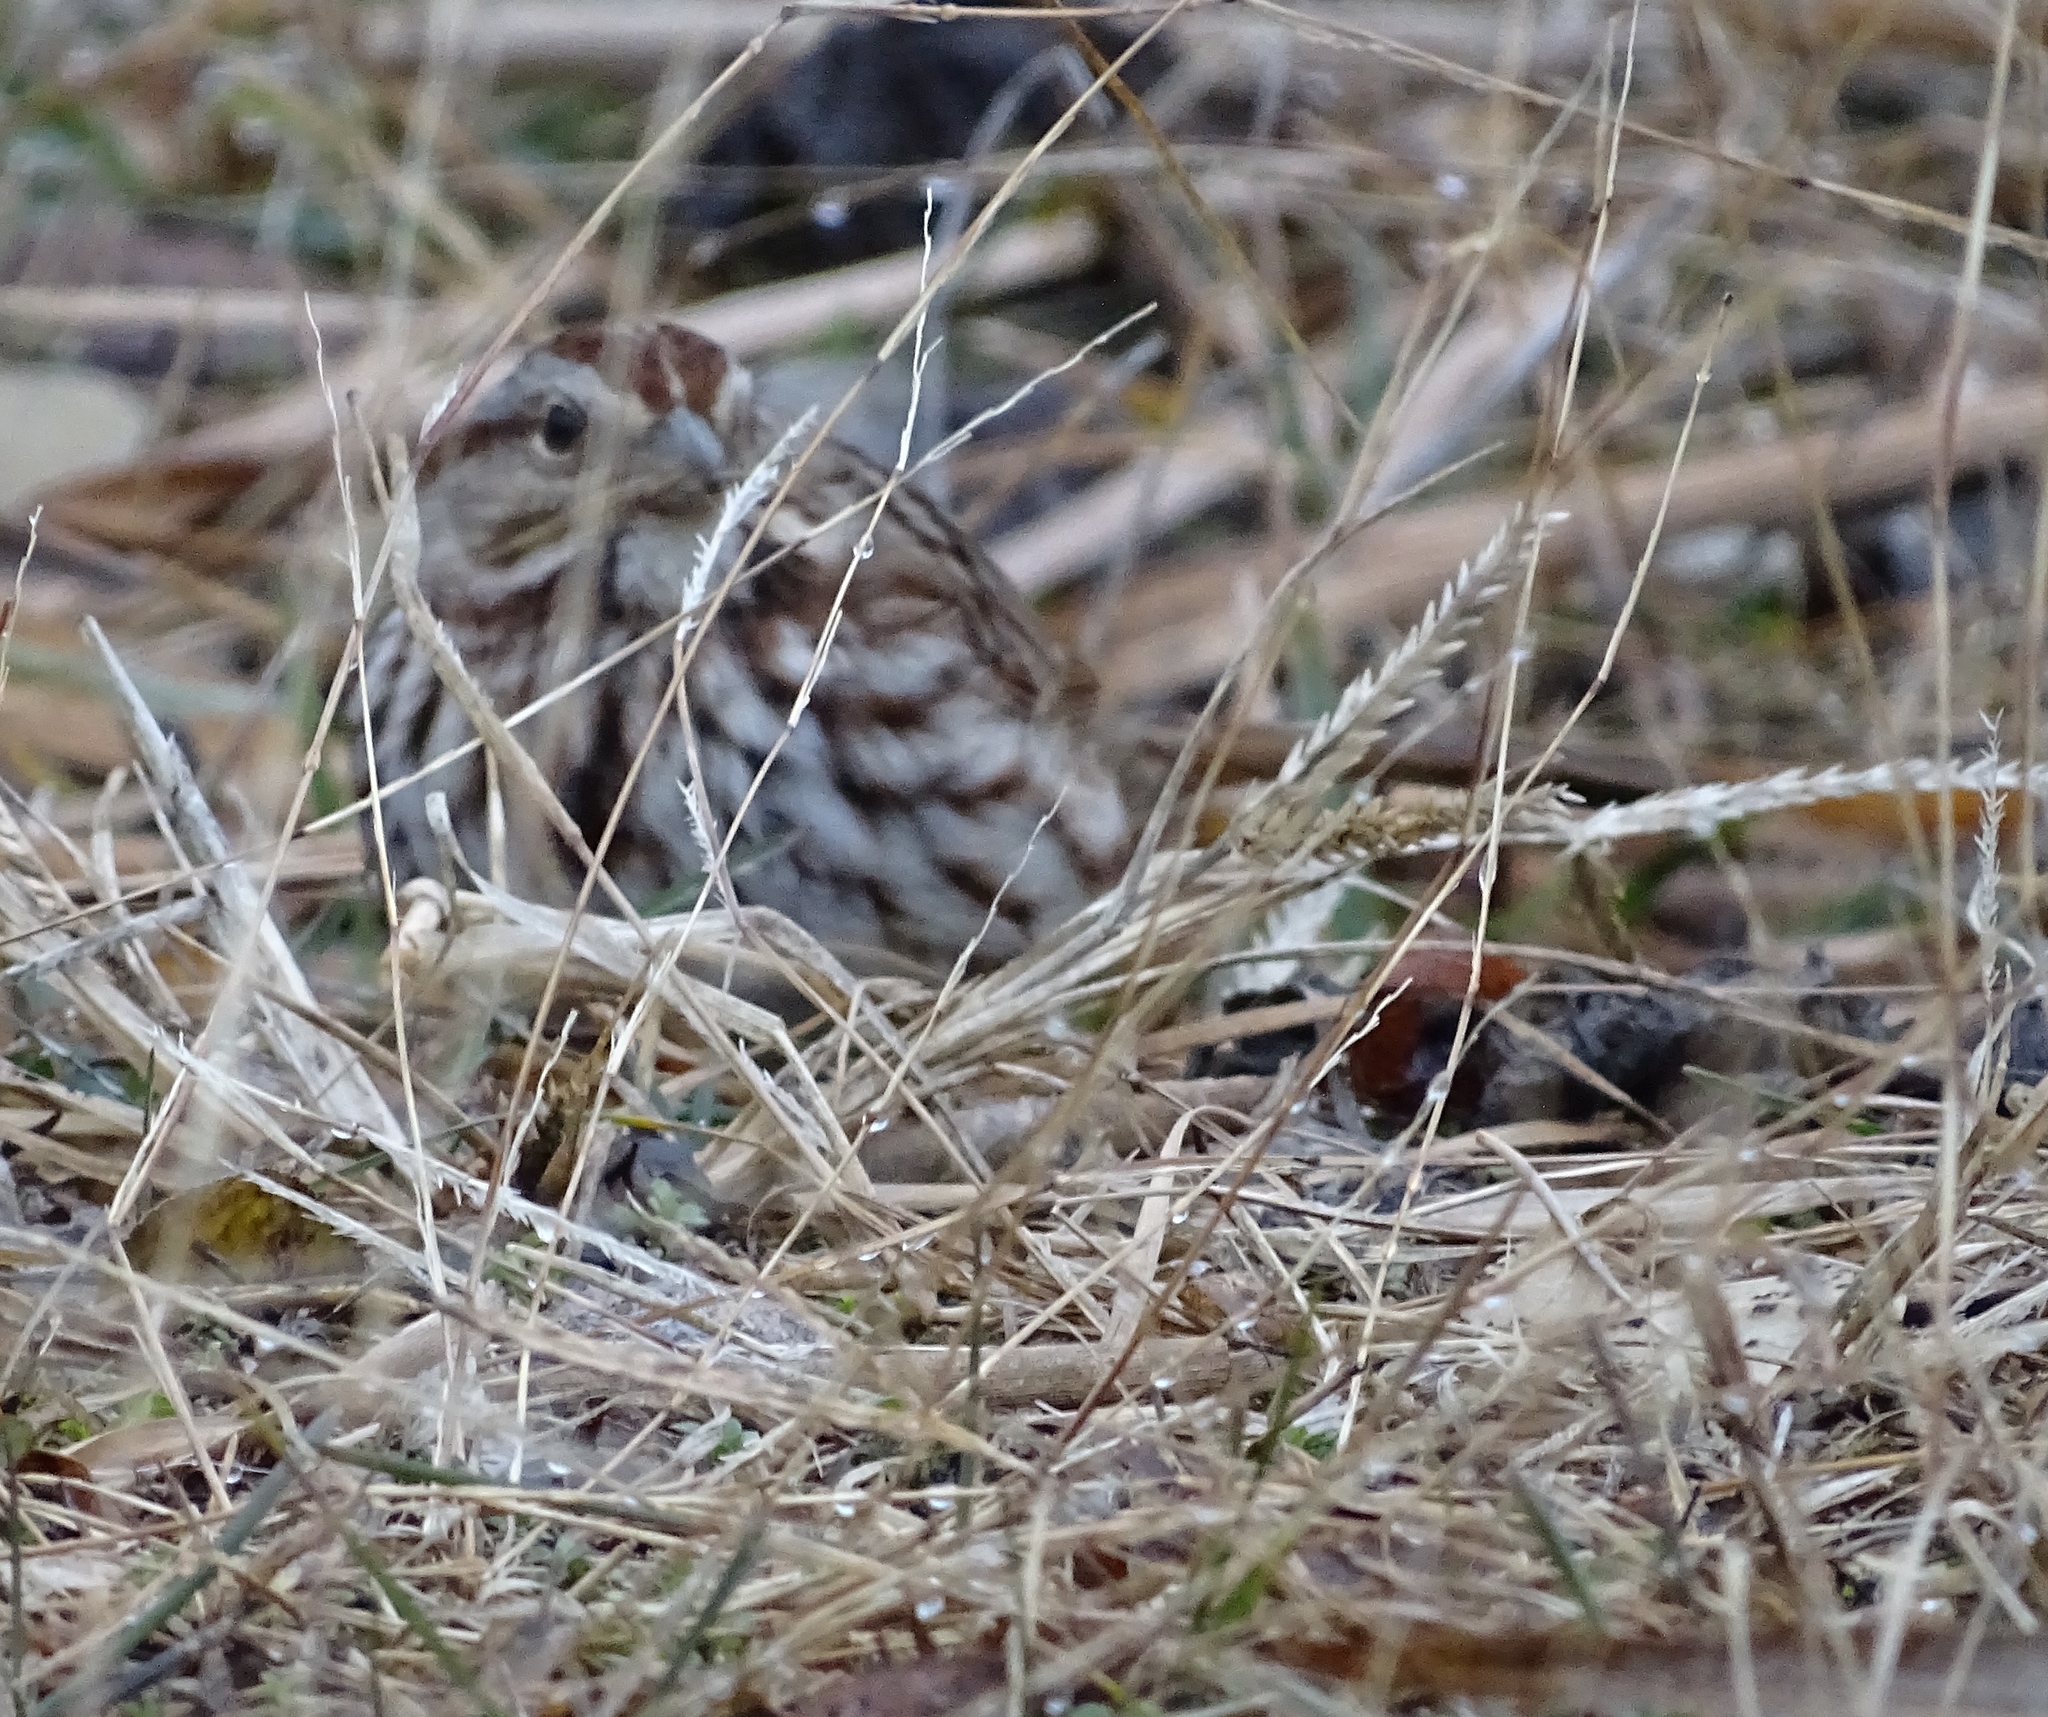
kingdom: Animalia
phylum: Chordata
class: Aves
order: Passeriformes
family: Passerellidae
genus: Melospiza
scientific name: Melospiza melodia
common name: Song sparrow
